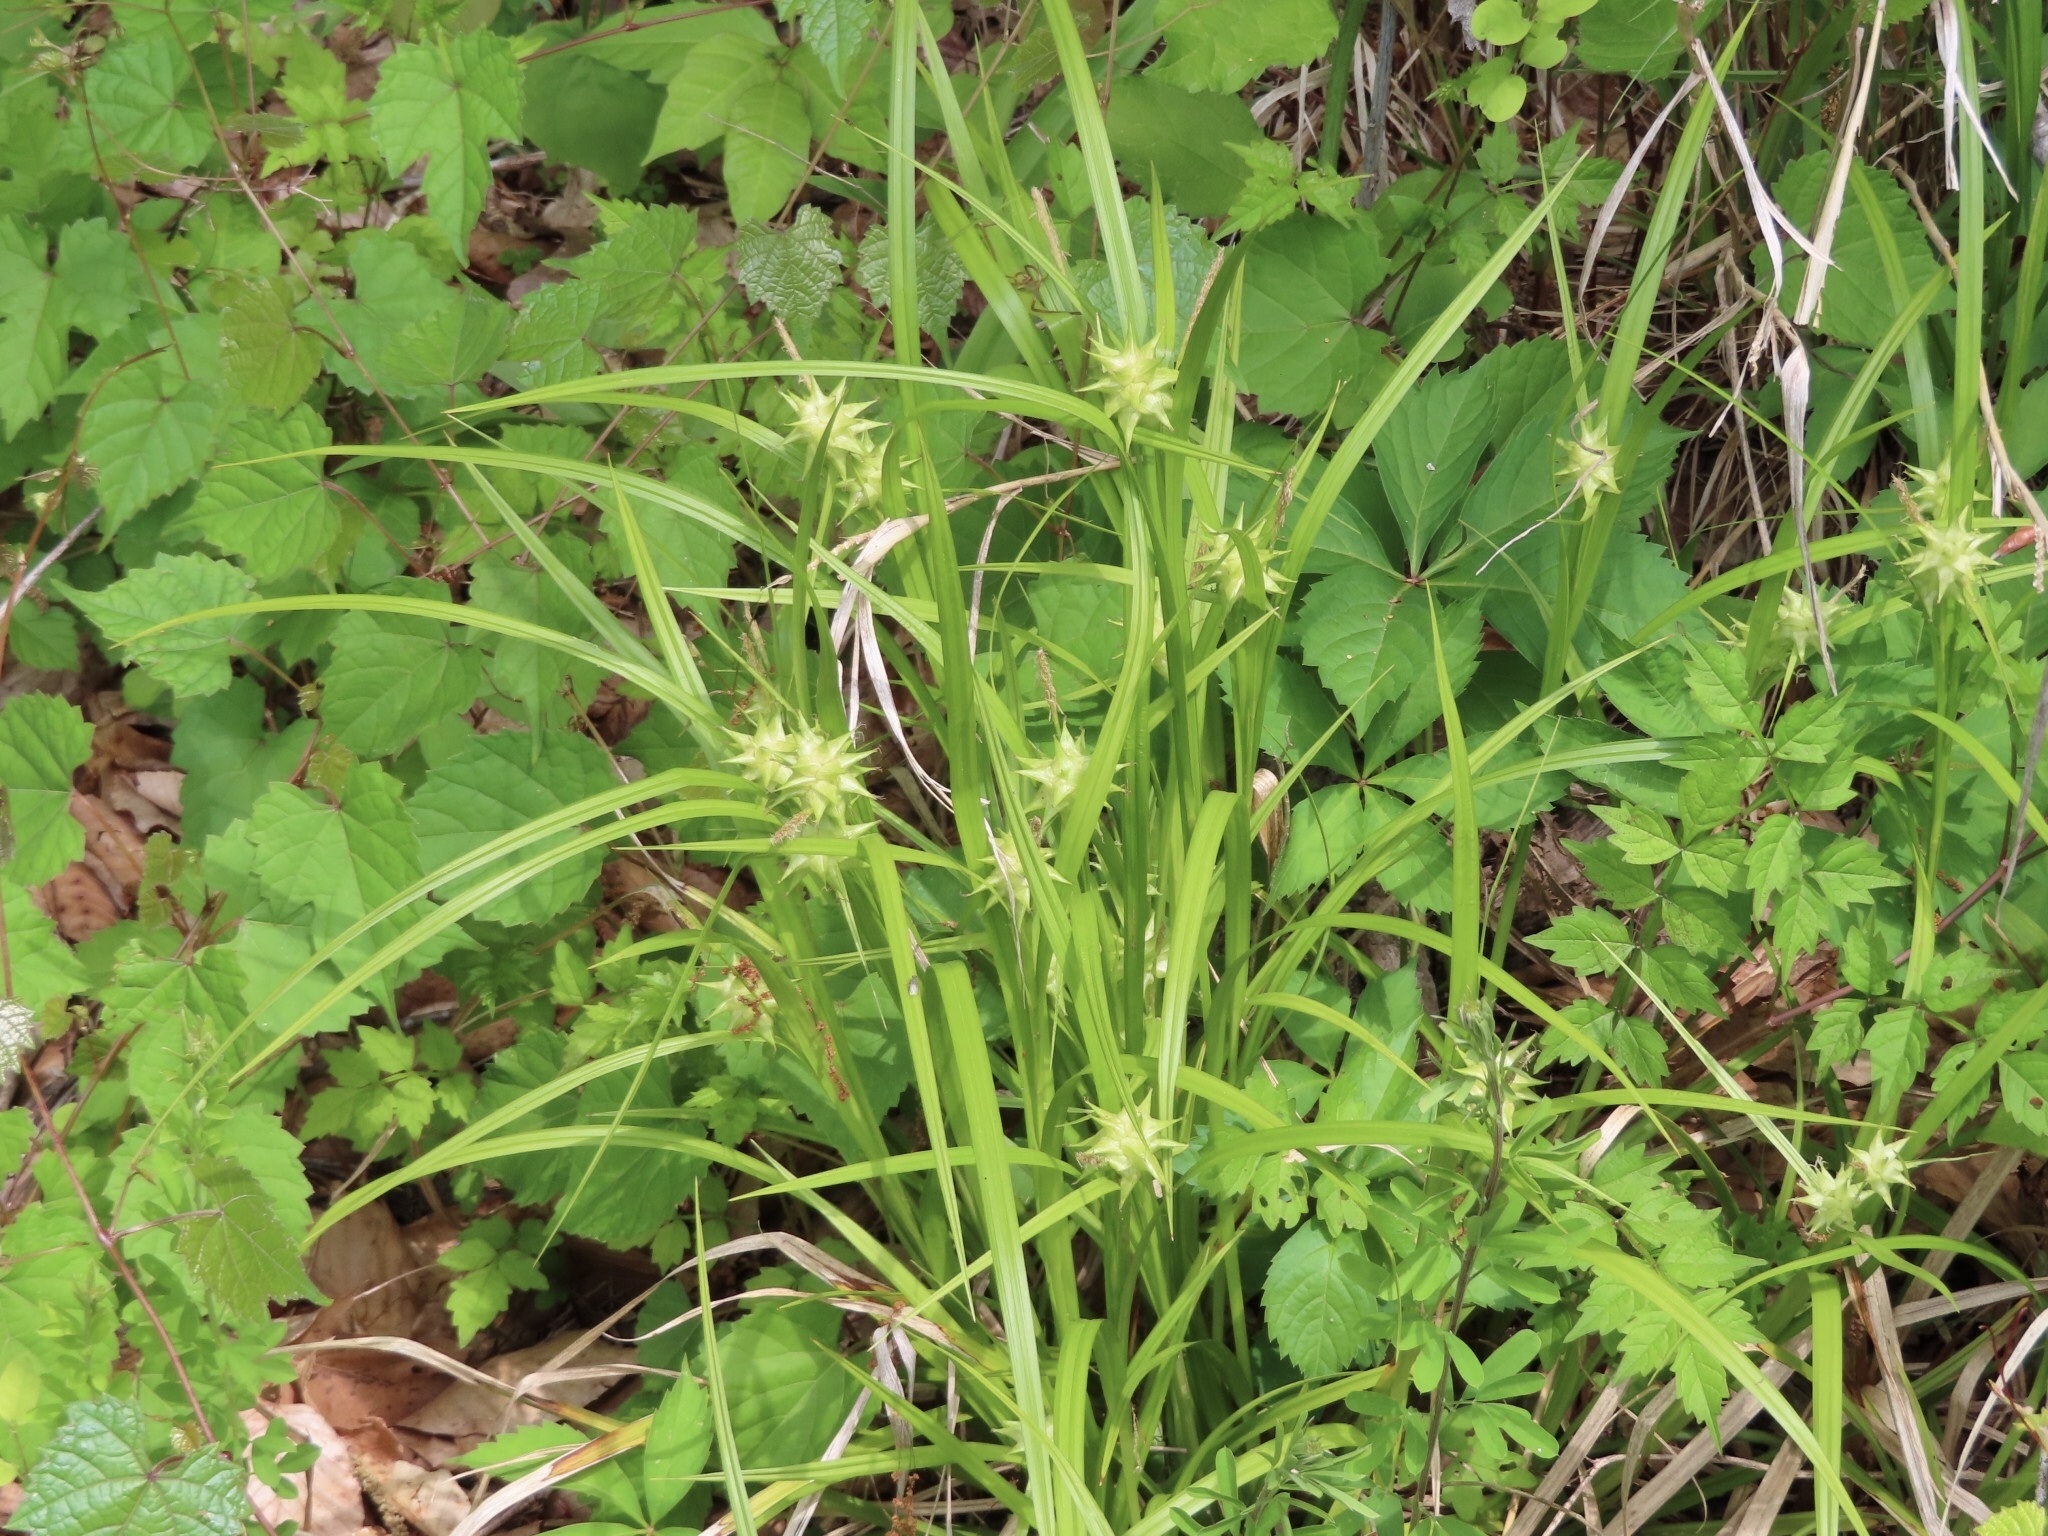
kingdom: Plantae
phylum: Tracheophyta
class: Liliopsida
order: Poales
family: Cyperaceae
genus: Carex
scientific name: Carex grayi
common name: Asa gray's sedge
